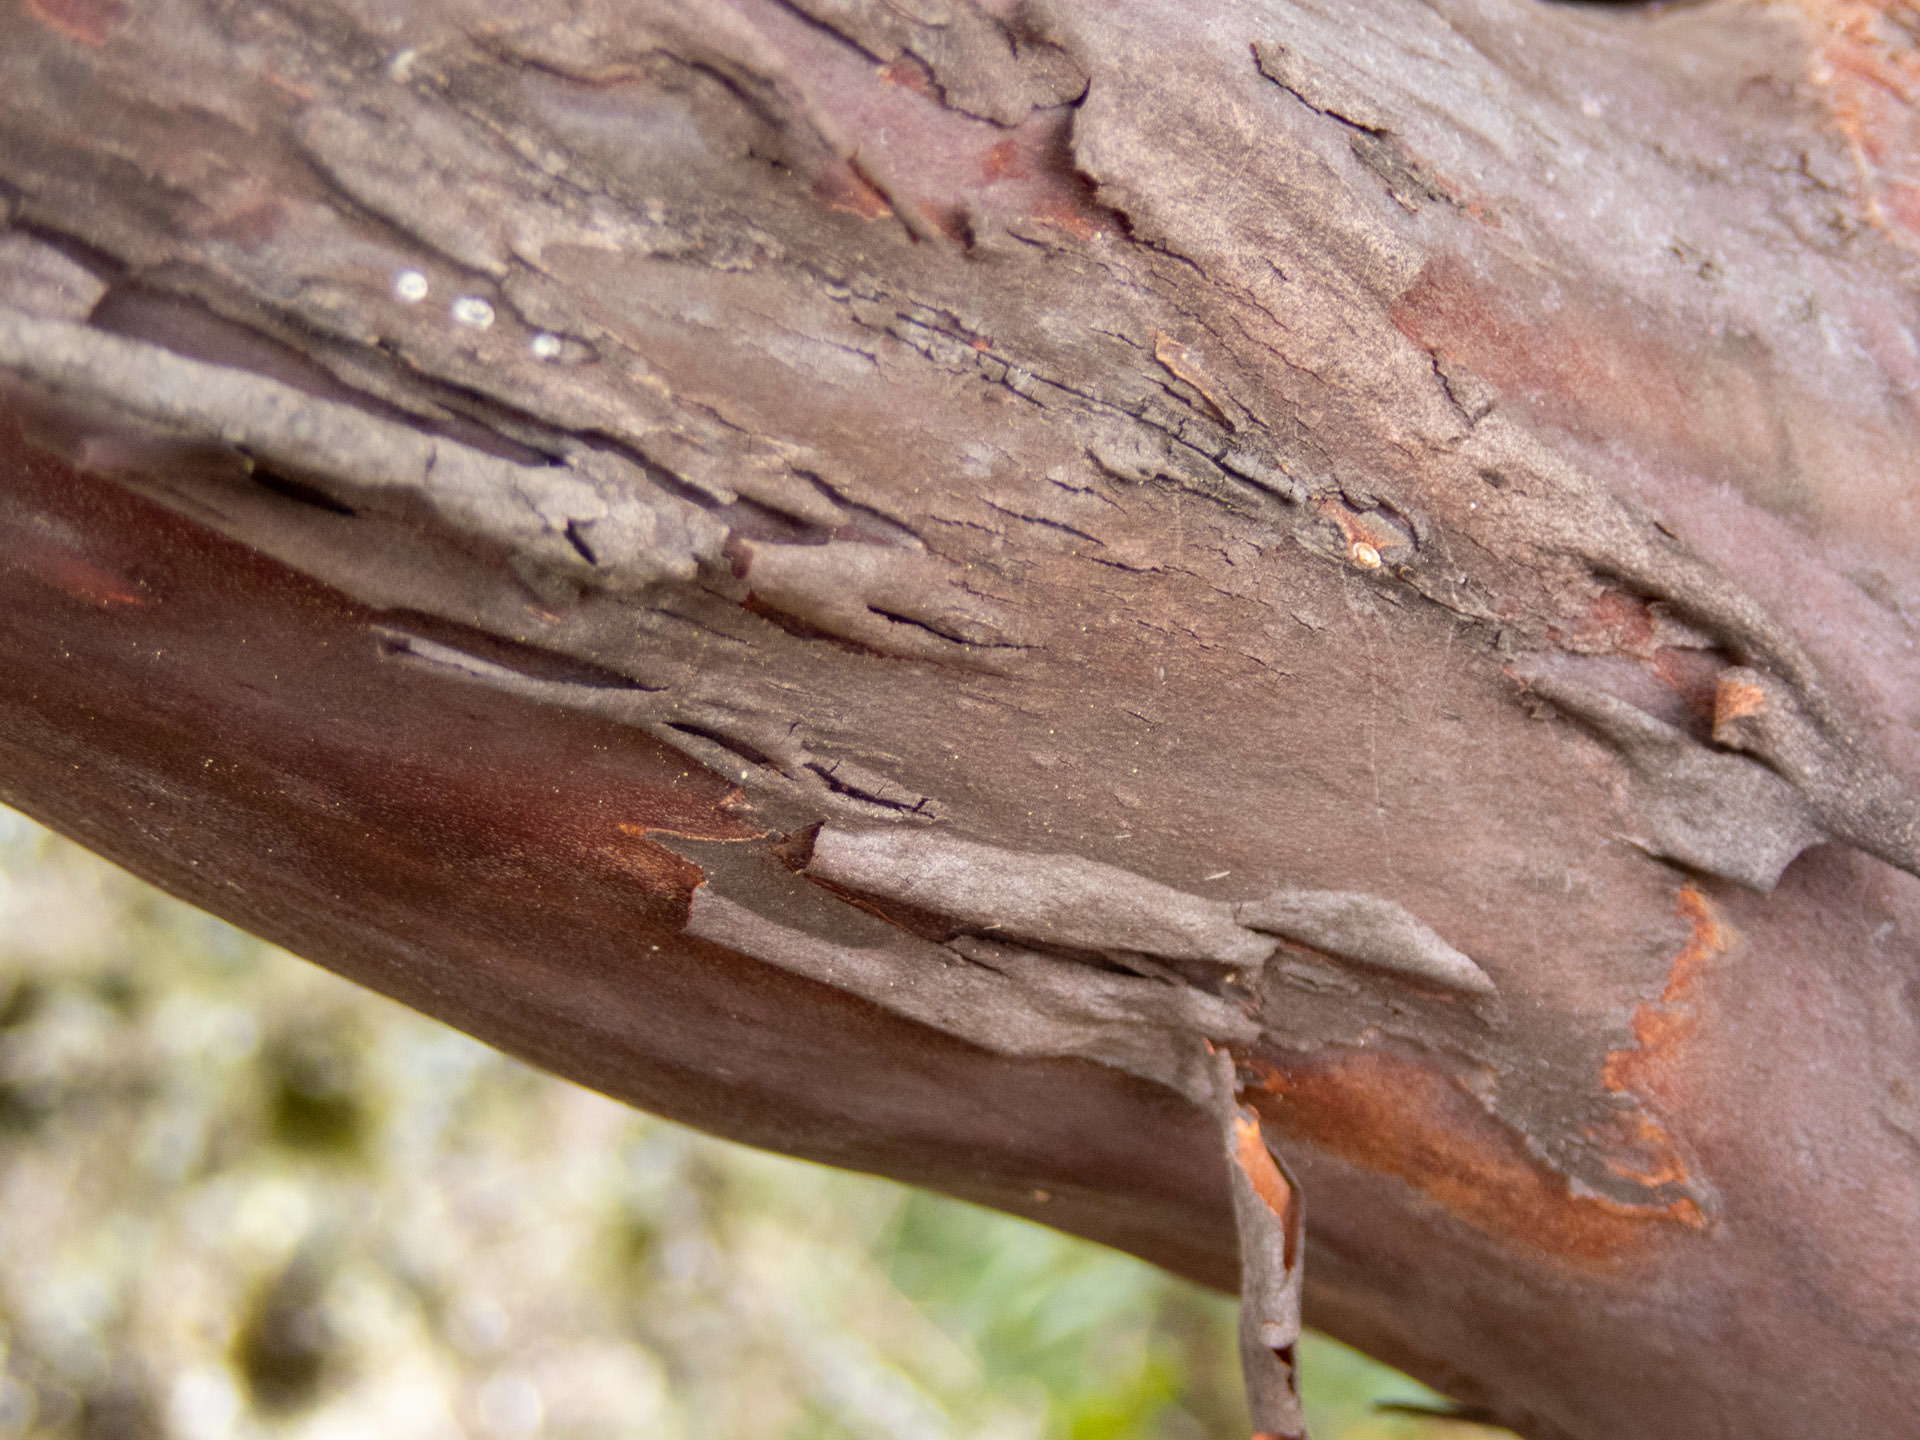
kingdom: Plantae
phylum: Tracheophyta
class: Magnoliopsida
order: Ericales
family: Ericaceae
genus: Arctostaphylos
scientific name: Arctostaphylos montaraensis
